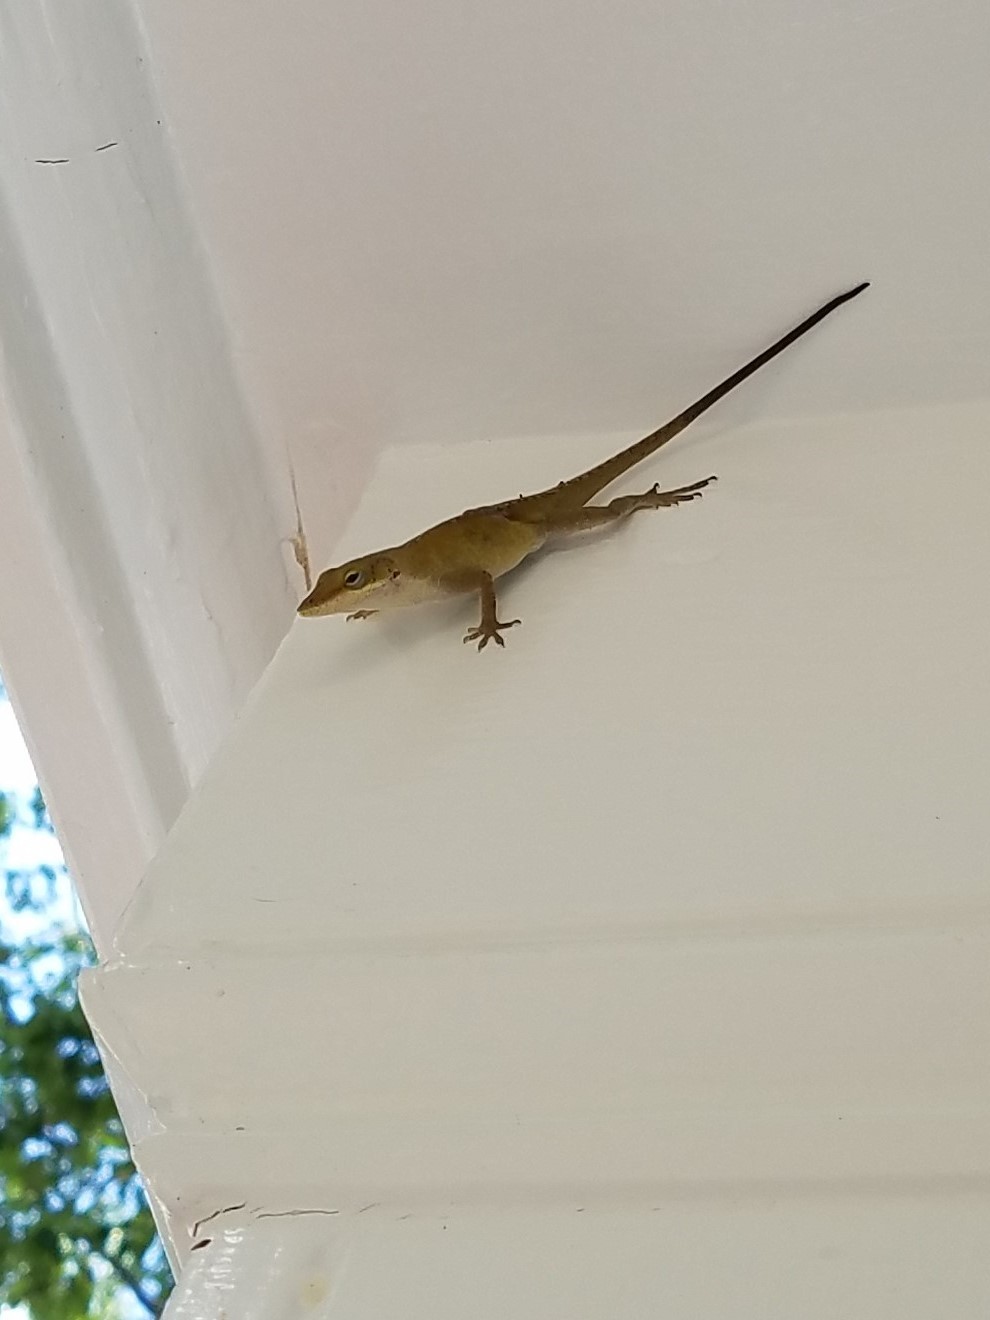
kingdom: Animalia
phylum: Chordata
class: Squamata
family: Dactyloidae
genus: Anolis
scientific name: Anolis carolinensis
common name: Green anole
